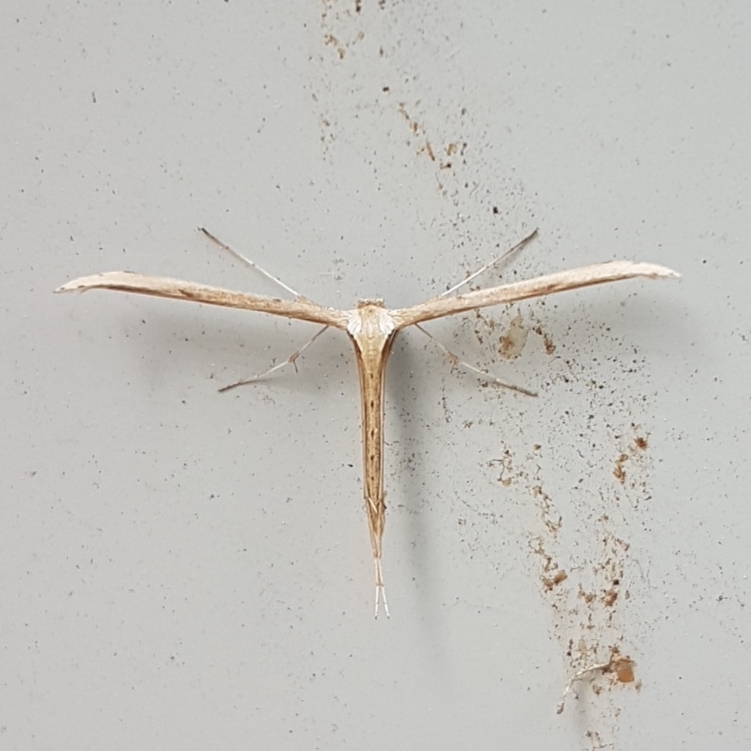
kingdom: Animalia
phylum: Arthropoda
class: Insecta
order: Lepidoptera
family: Pterophoridae
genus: Emmelina
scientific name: Emmelina monodactyla
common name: Common plume
